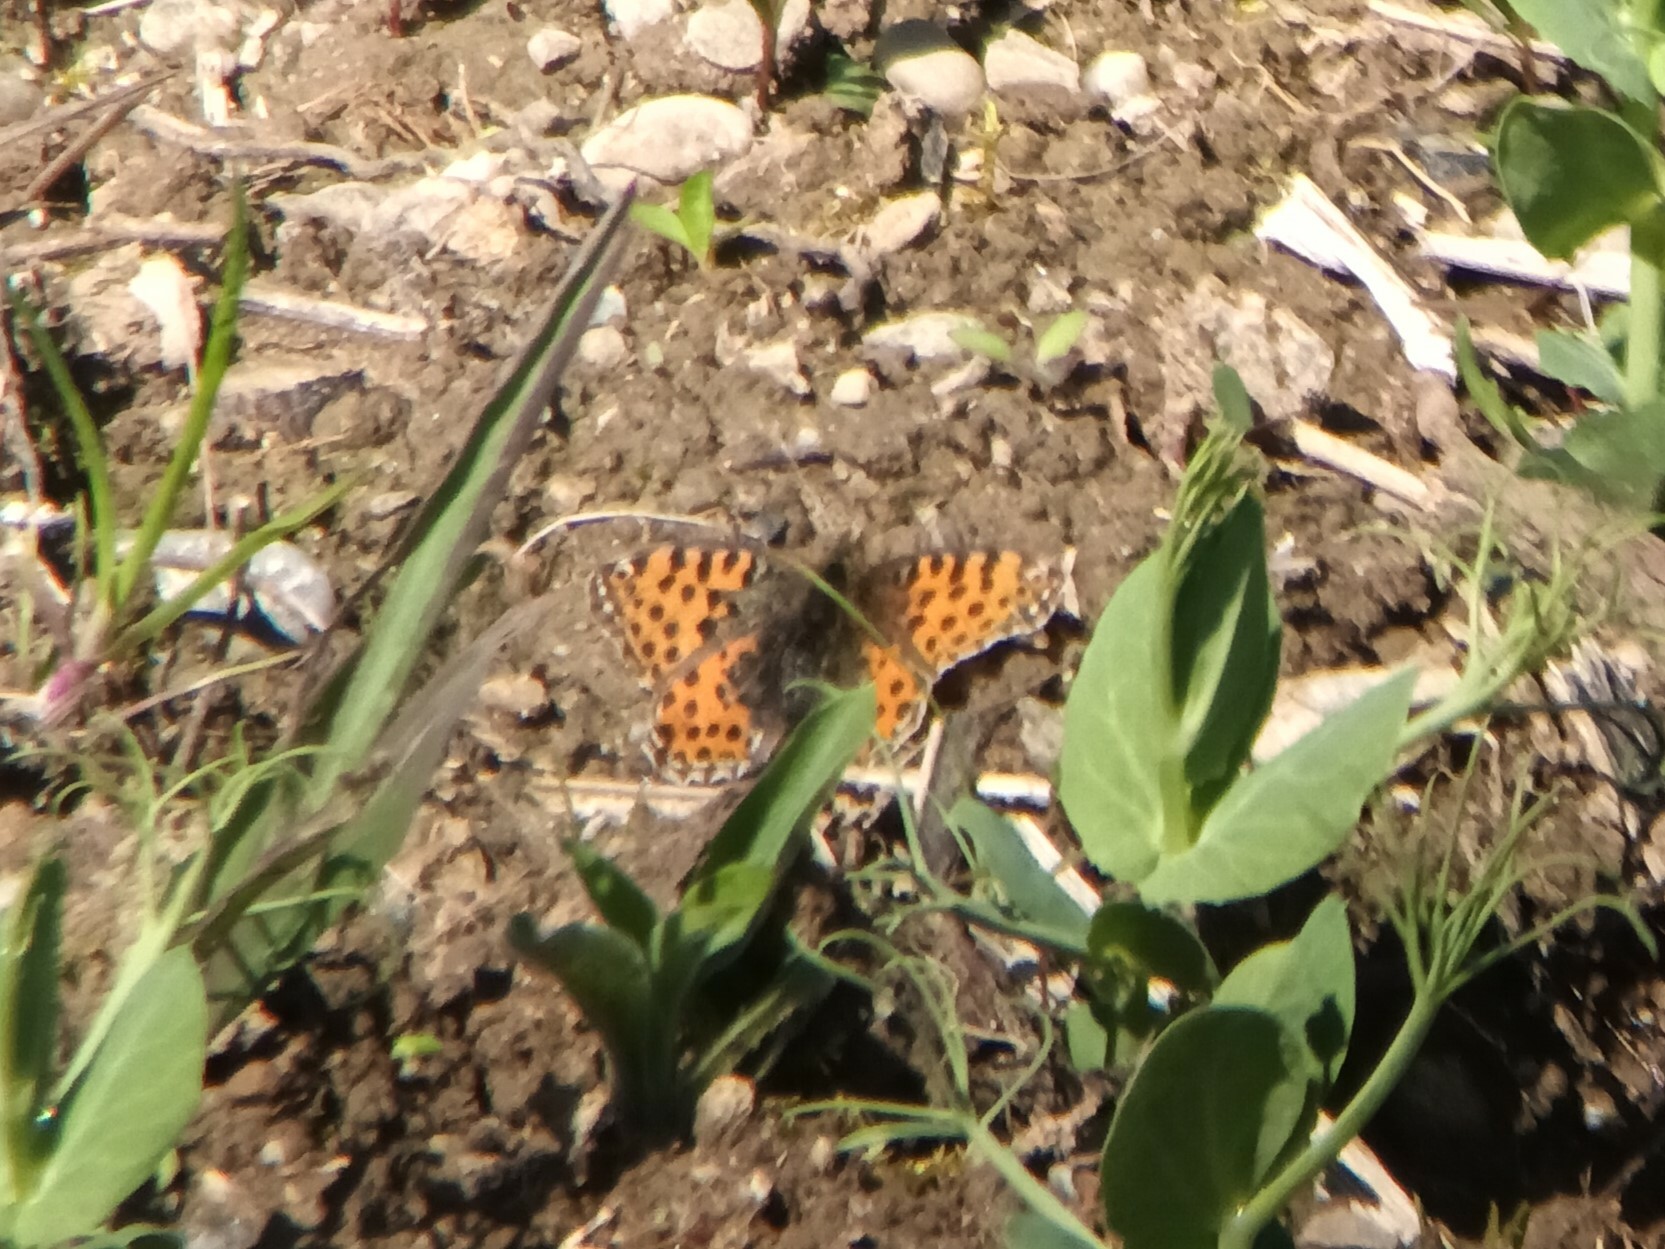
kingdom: Animalia
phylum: Arthropoda
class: Insecta
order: Lepidoptera
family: Nymphalidae
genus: Issoria
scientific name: Issoria lathonia
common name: Queen of spain fritillary
